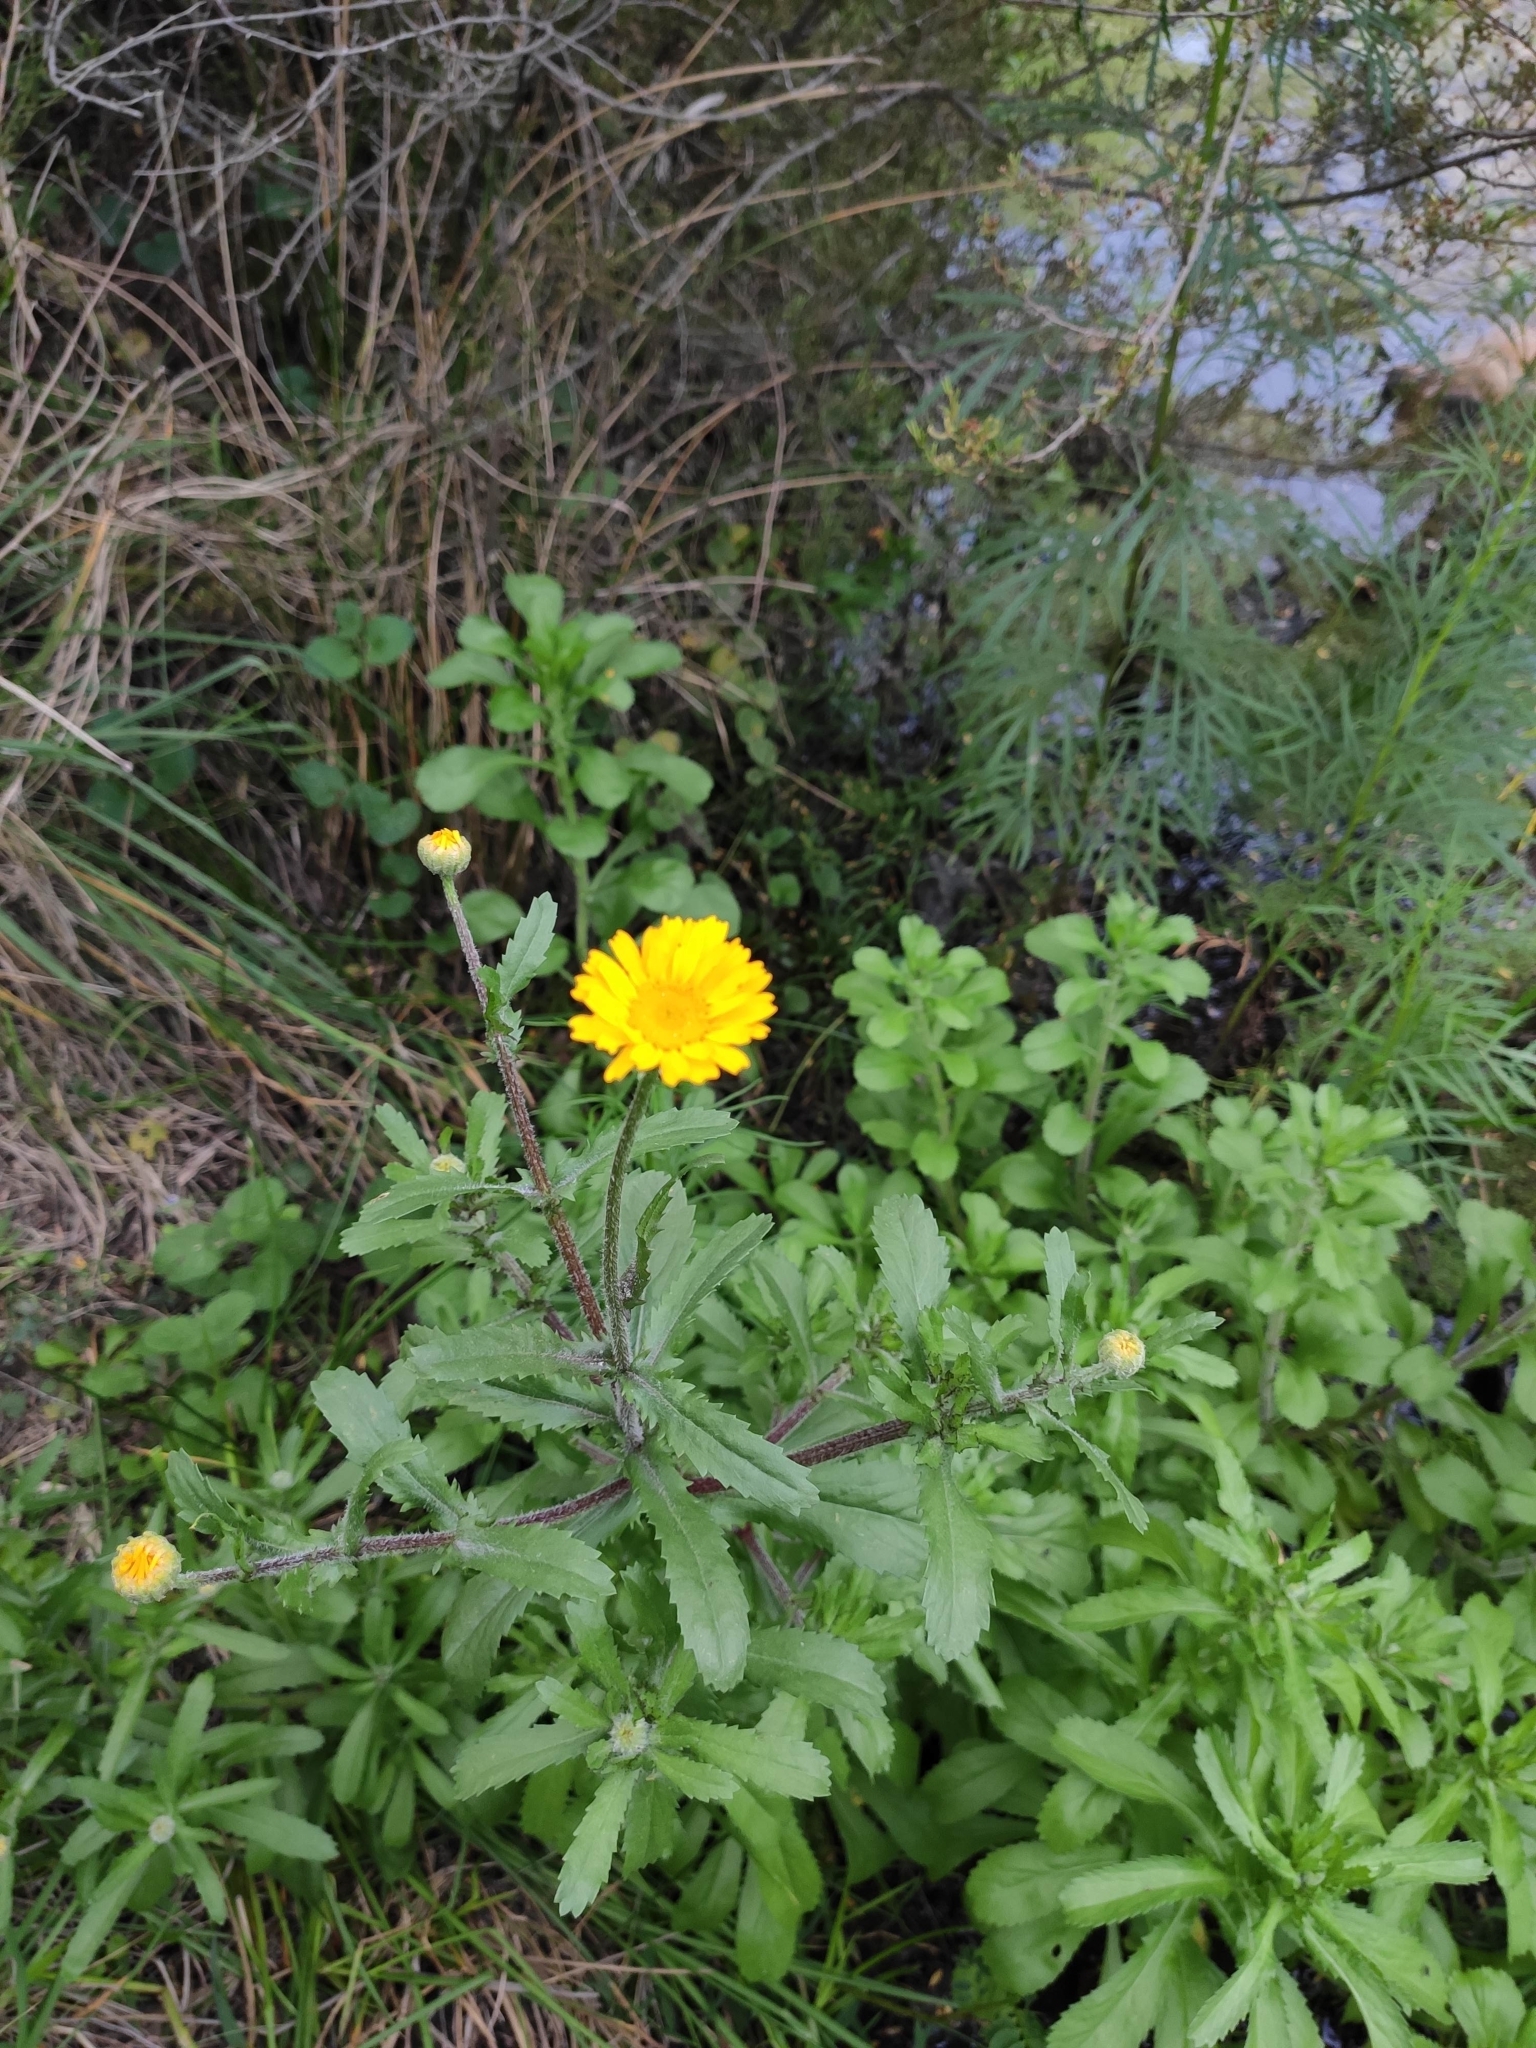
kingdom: Plantae
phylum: Tracheophyta
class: Magnoliopsida
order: Asterales
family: Asteraceae
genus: Coleostephus
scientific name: Coleostephus myconis
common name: Mediterranean marigold
